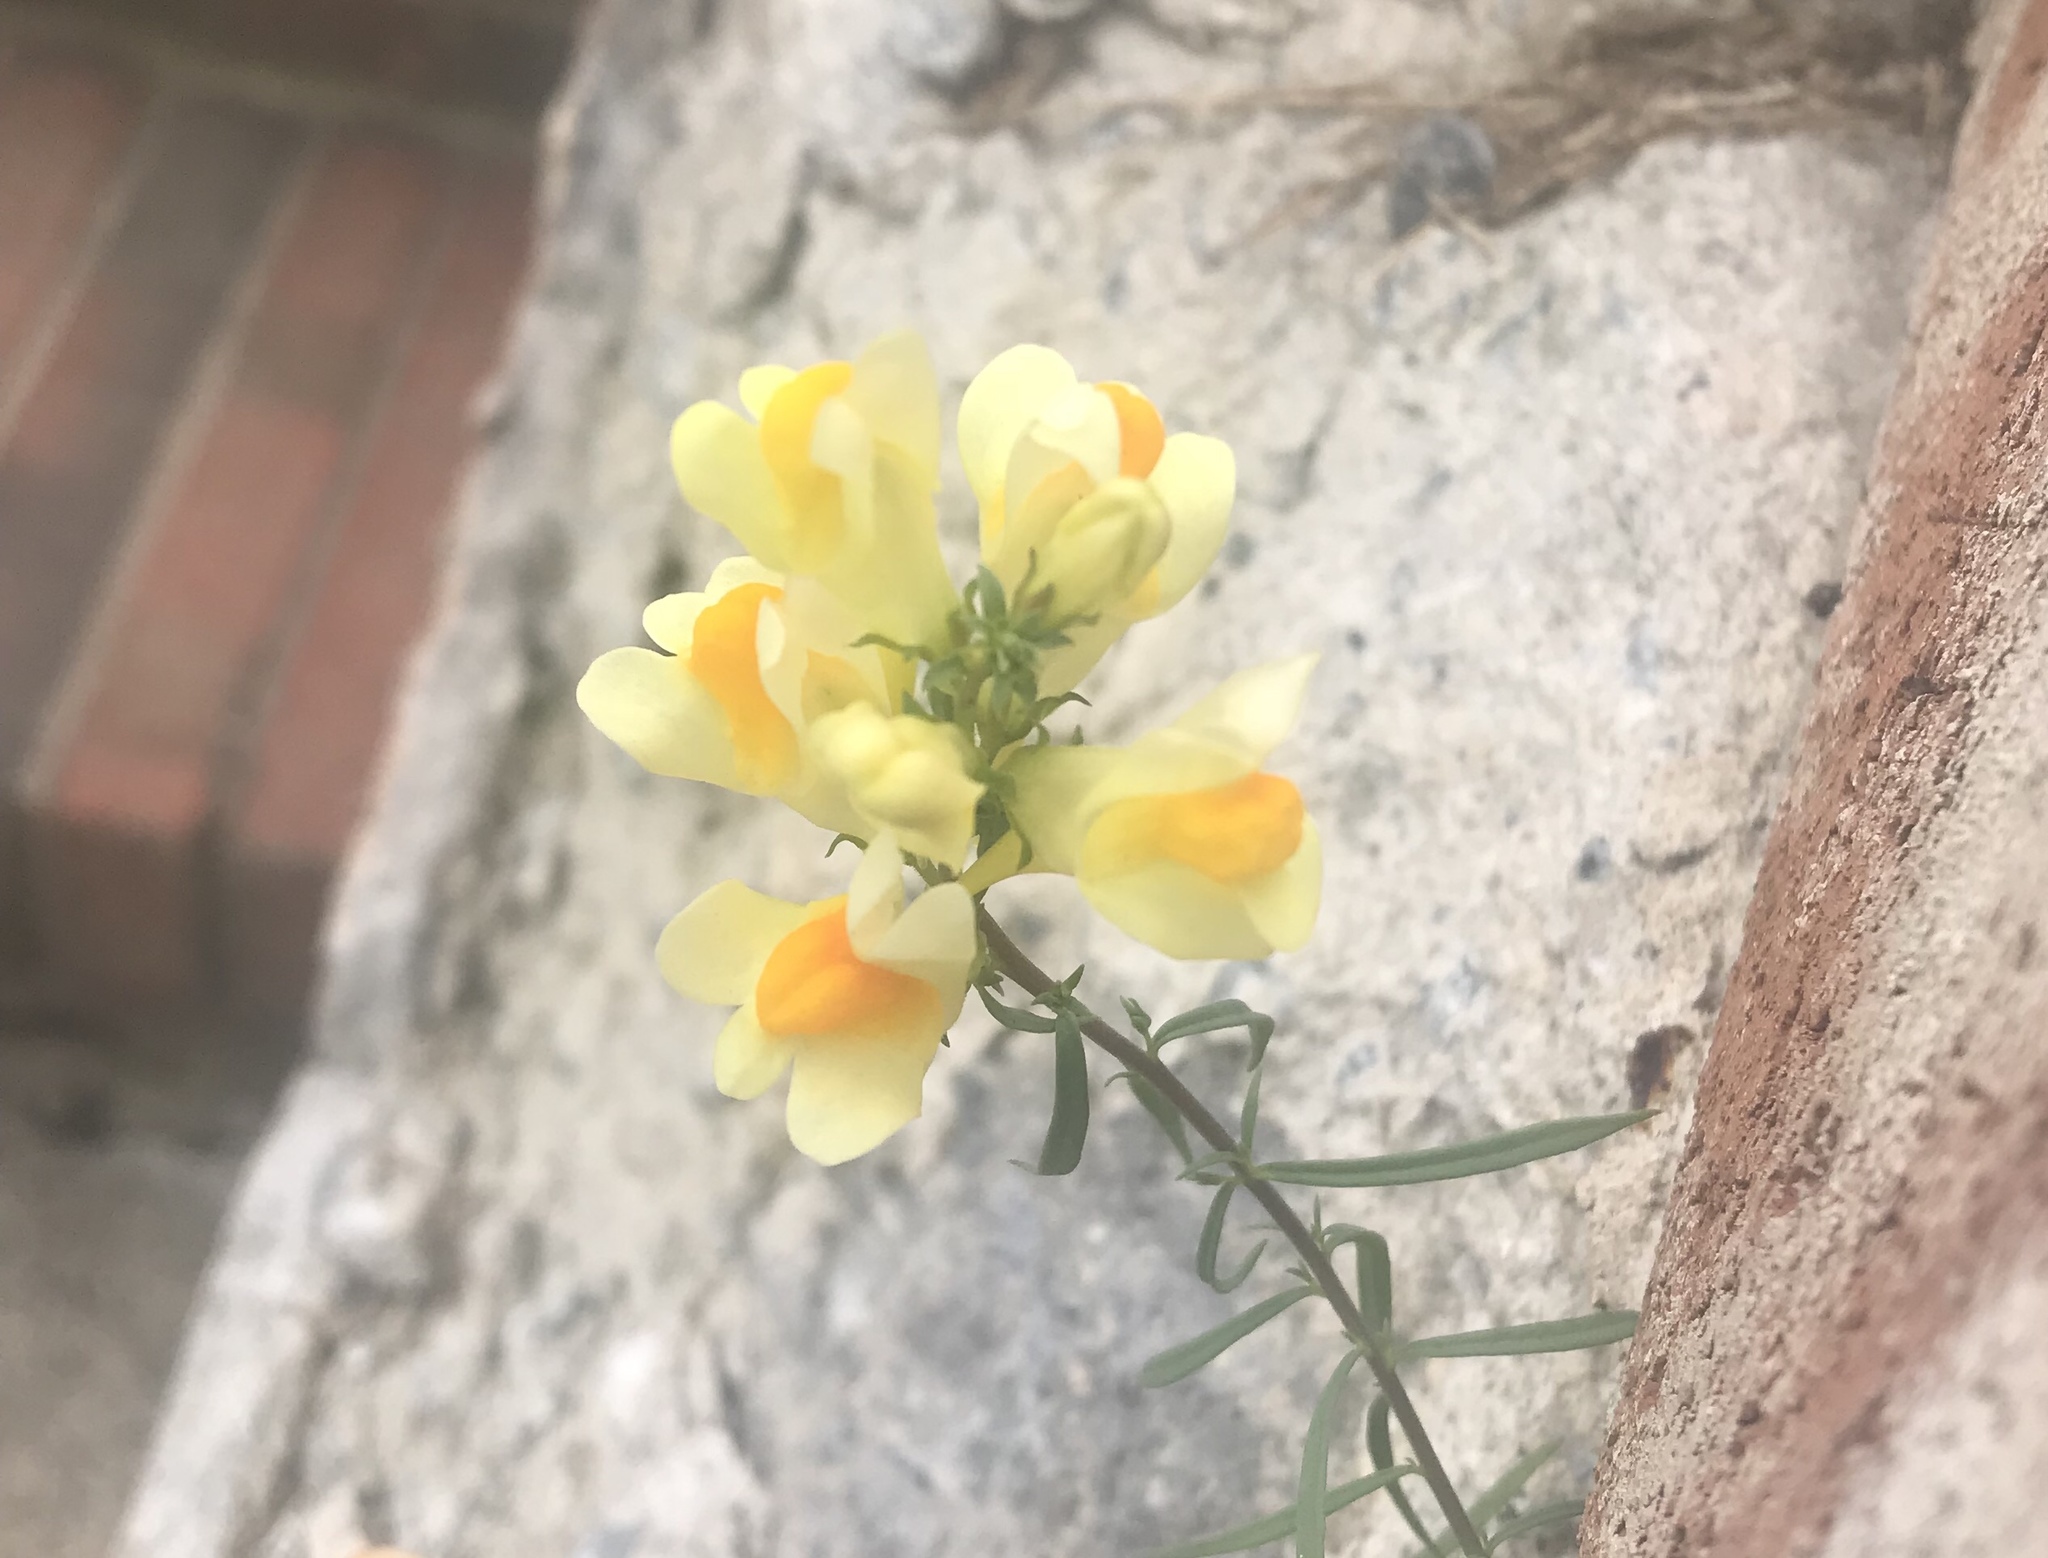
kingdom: Plantae
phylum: Tracheophyta
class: Magnoliopsida
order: Lamiales
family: Plantaginaceae
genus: Linaria
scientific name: Linaria vulgaris
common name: Butter and eggs
